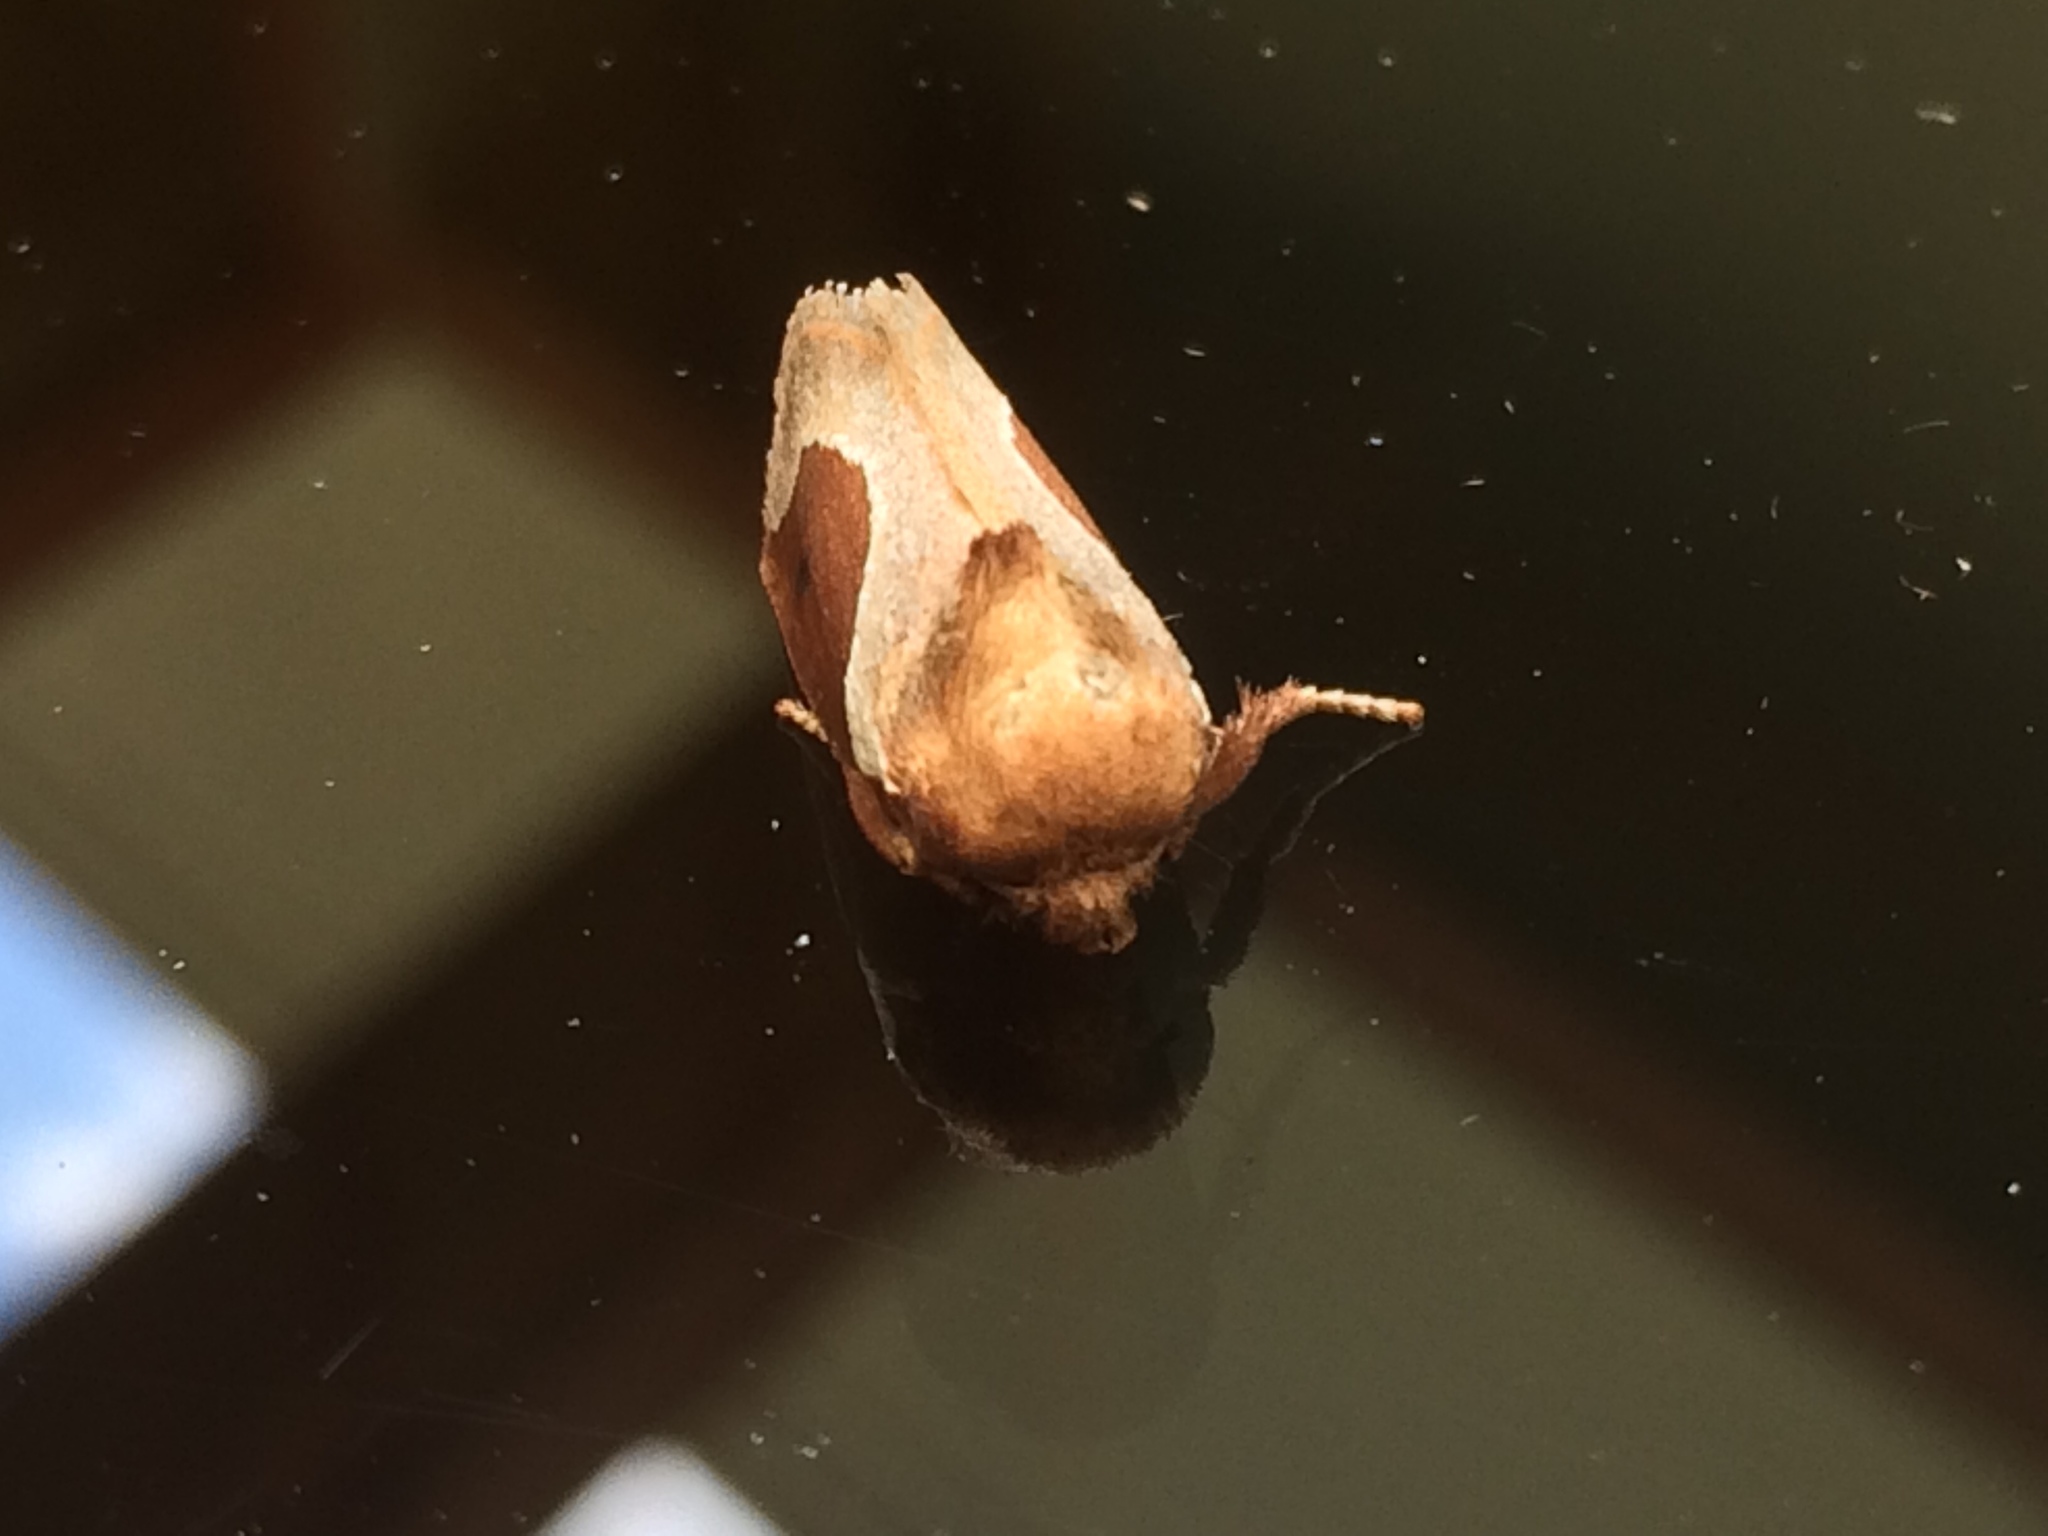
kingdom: Animalia
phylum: Arthropoda
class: Insecta
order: Lepidoptera
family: Limacodidae
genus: Prolimacodes
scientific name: Prolimacodes badia
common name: Skiff moth
